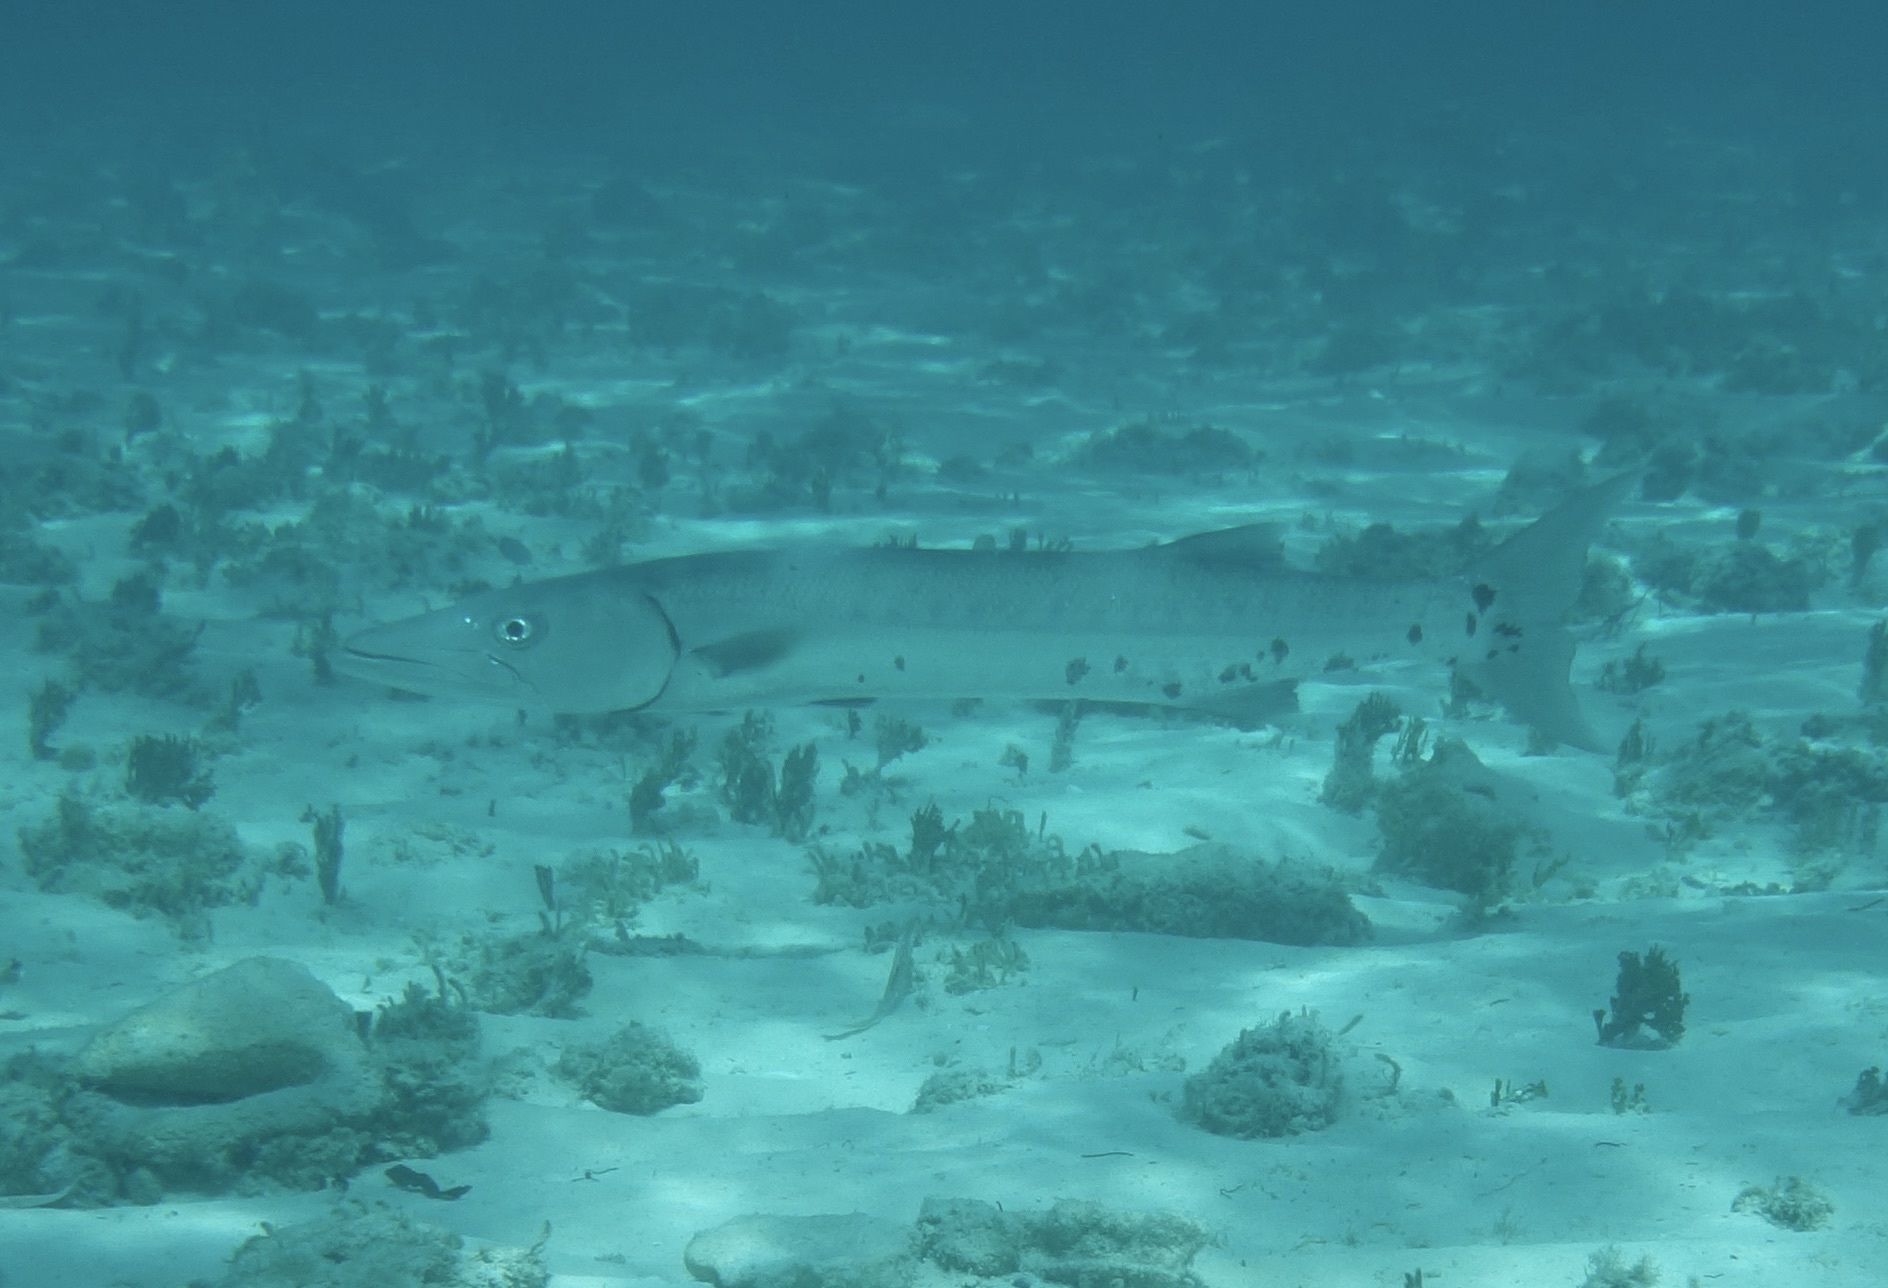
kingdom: Animalia
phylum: Chordata
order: Perciformes
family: Sphyraenidae
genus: Sphyraena
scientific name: Sphyraena barracuda
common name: Great barracuda
